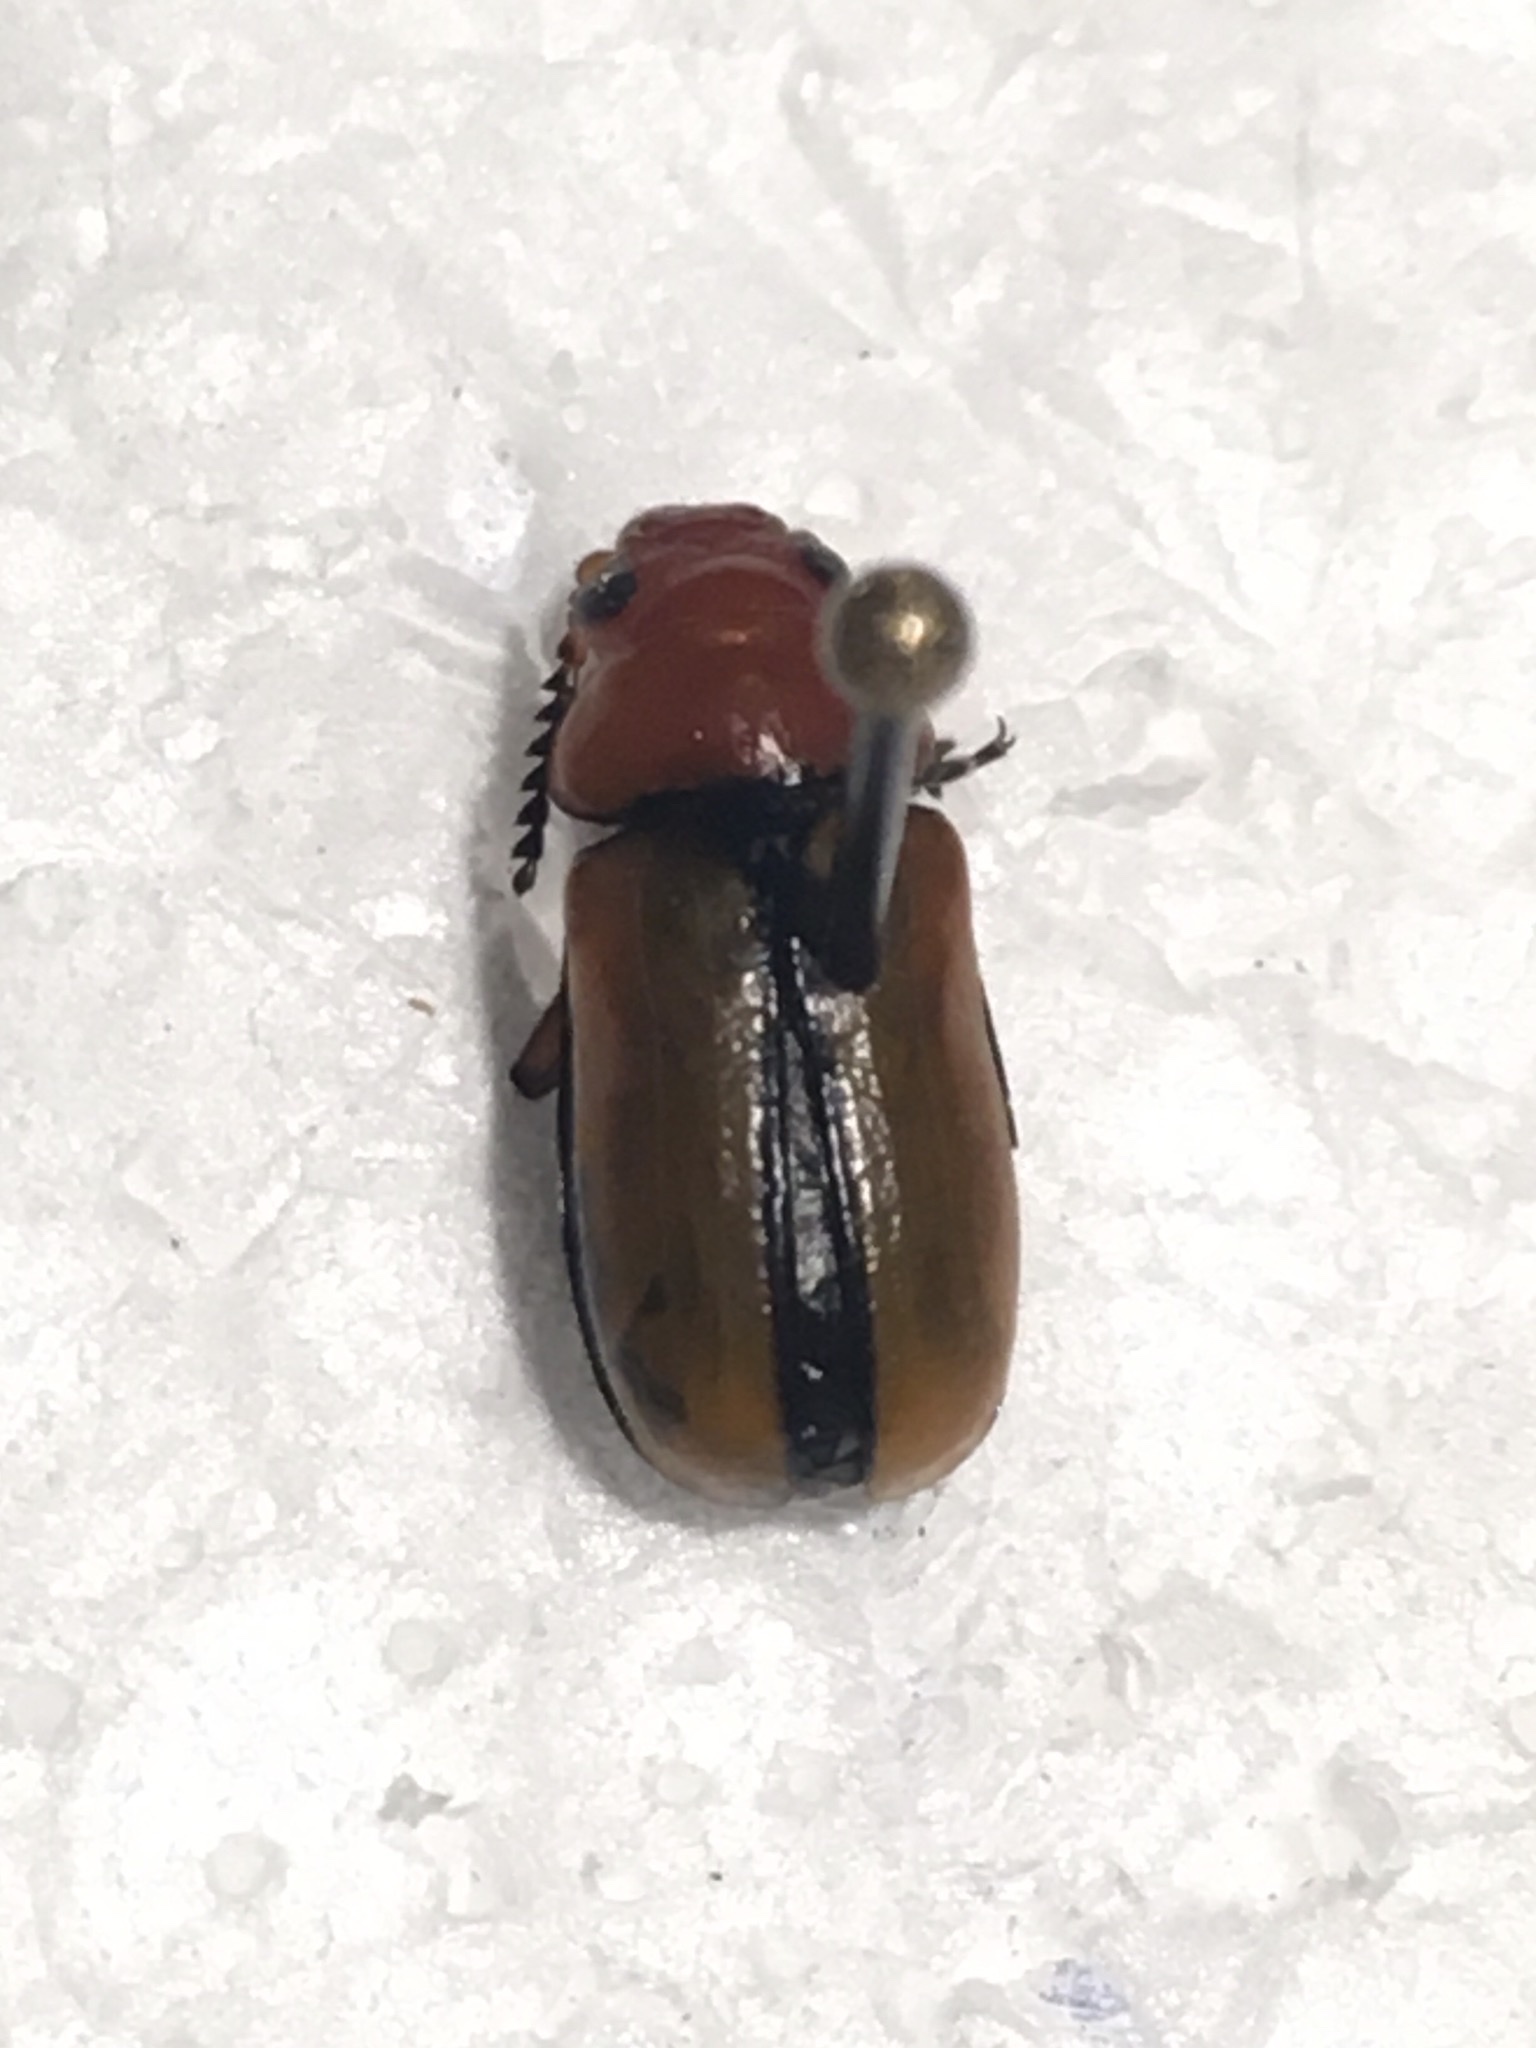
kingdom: Animalia
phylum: Arthropoda
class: Insecta
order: Coleoptera
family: Chrysomelidae
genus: Anomoea
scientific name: Anomoea laticlavia
